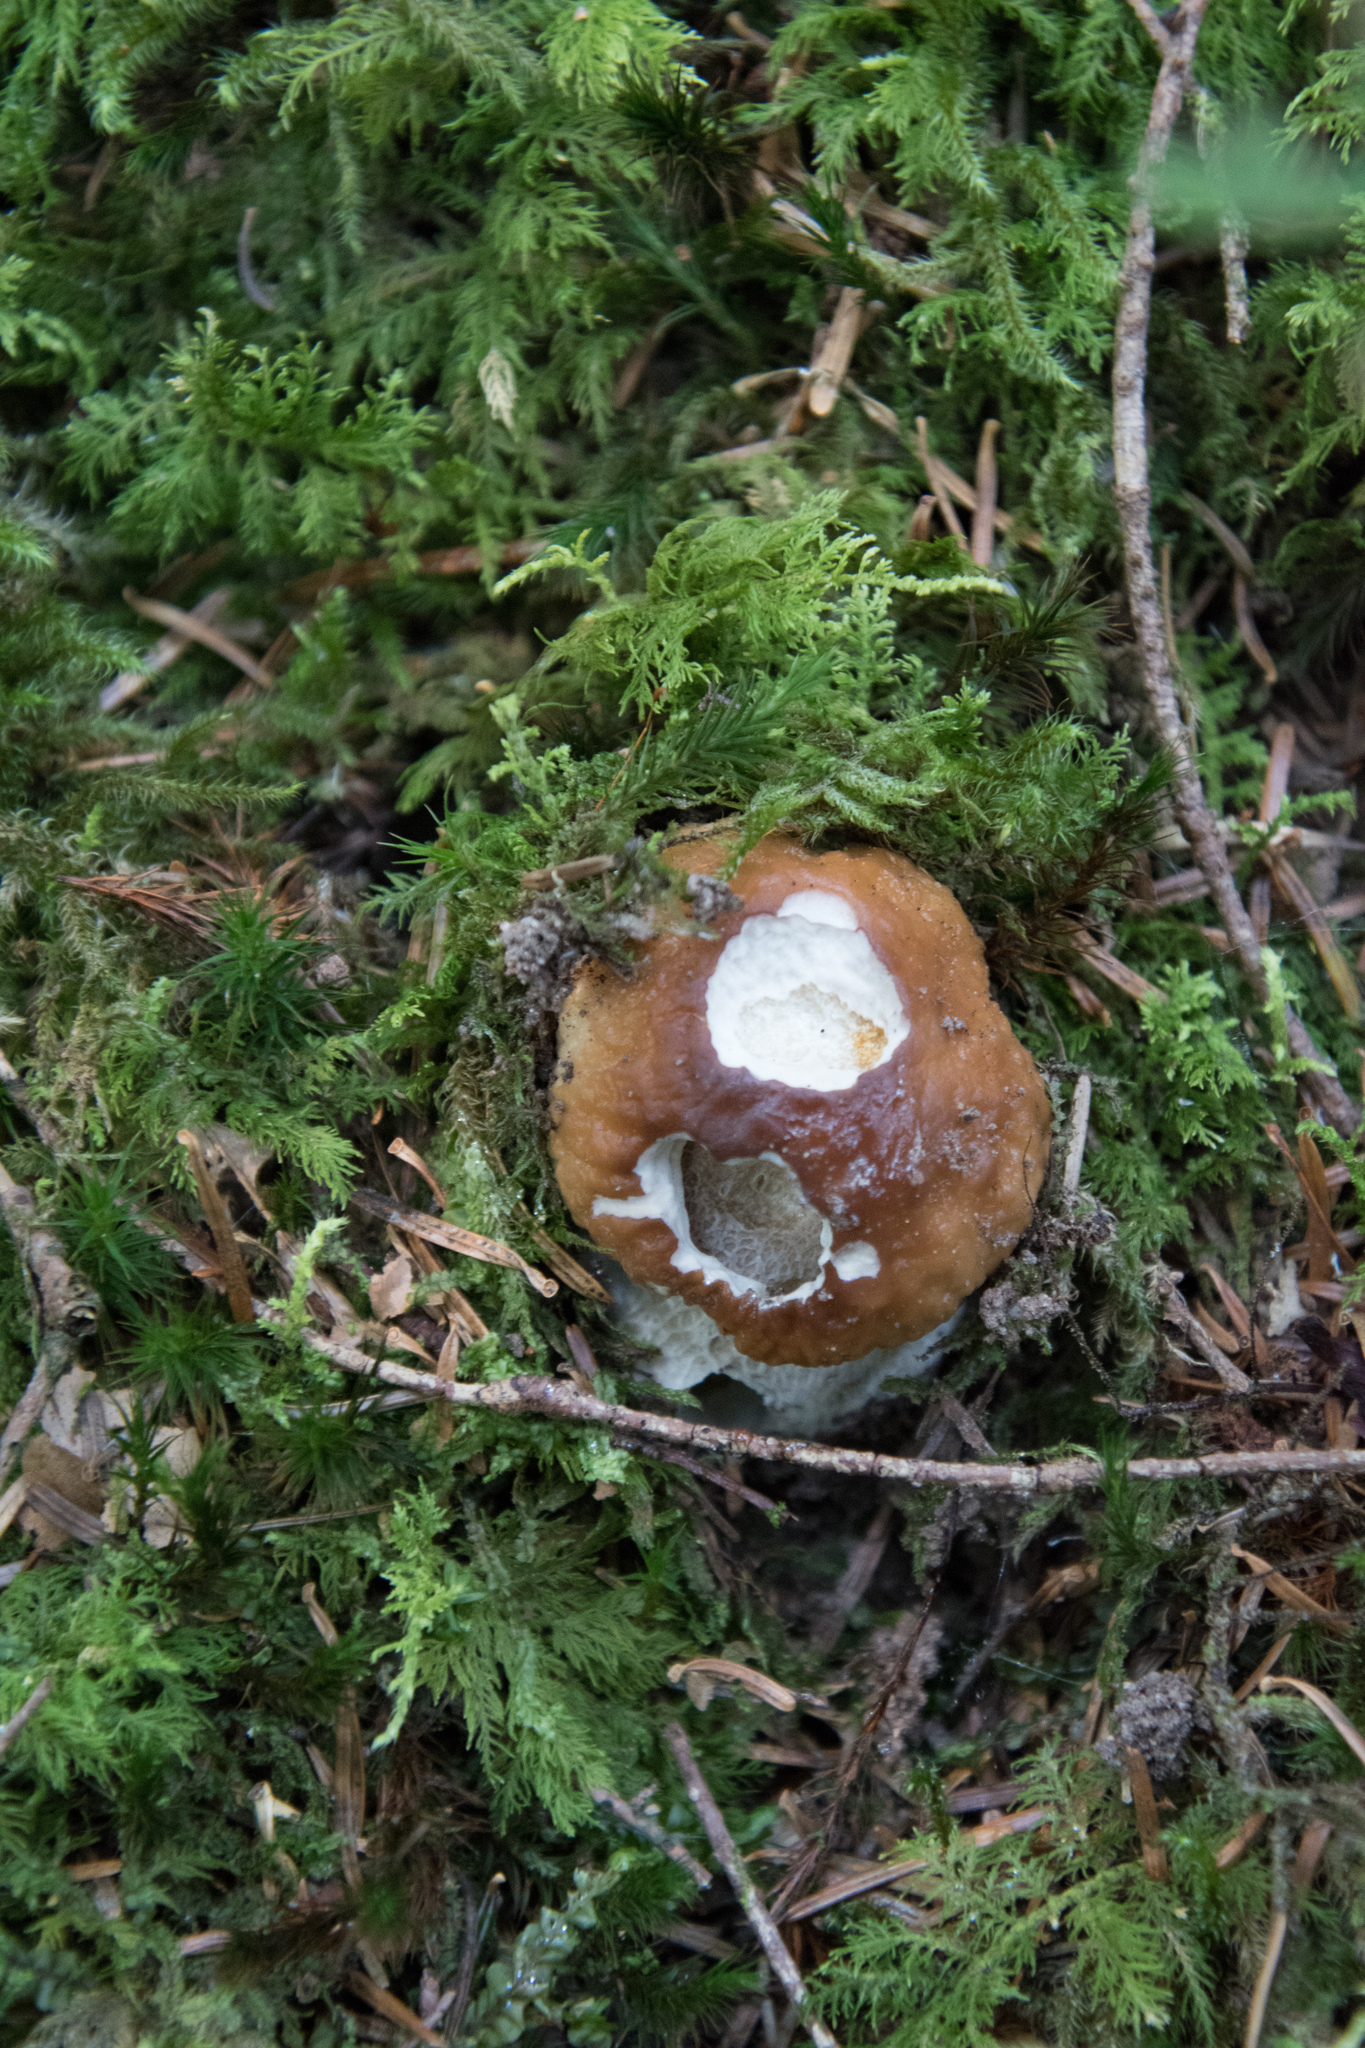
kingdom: Fungi
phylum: Basidiomycota
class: Agaricomycetes
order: Boletales
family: Boletaceae
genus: Boletus
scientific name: Boletus edulis
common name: Cep
